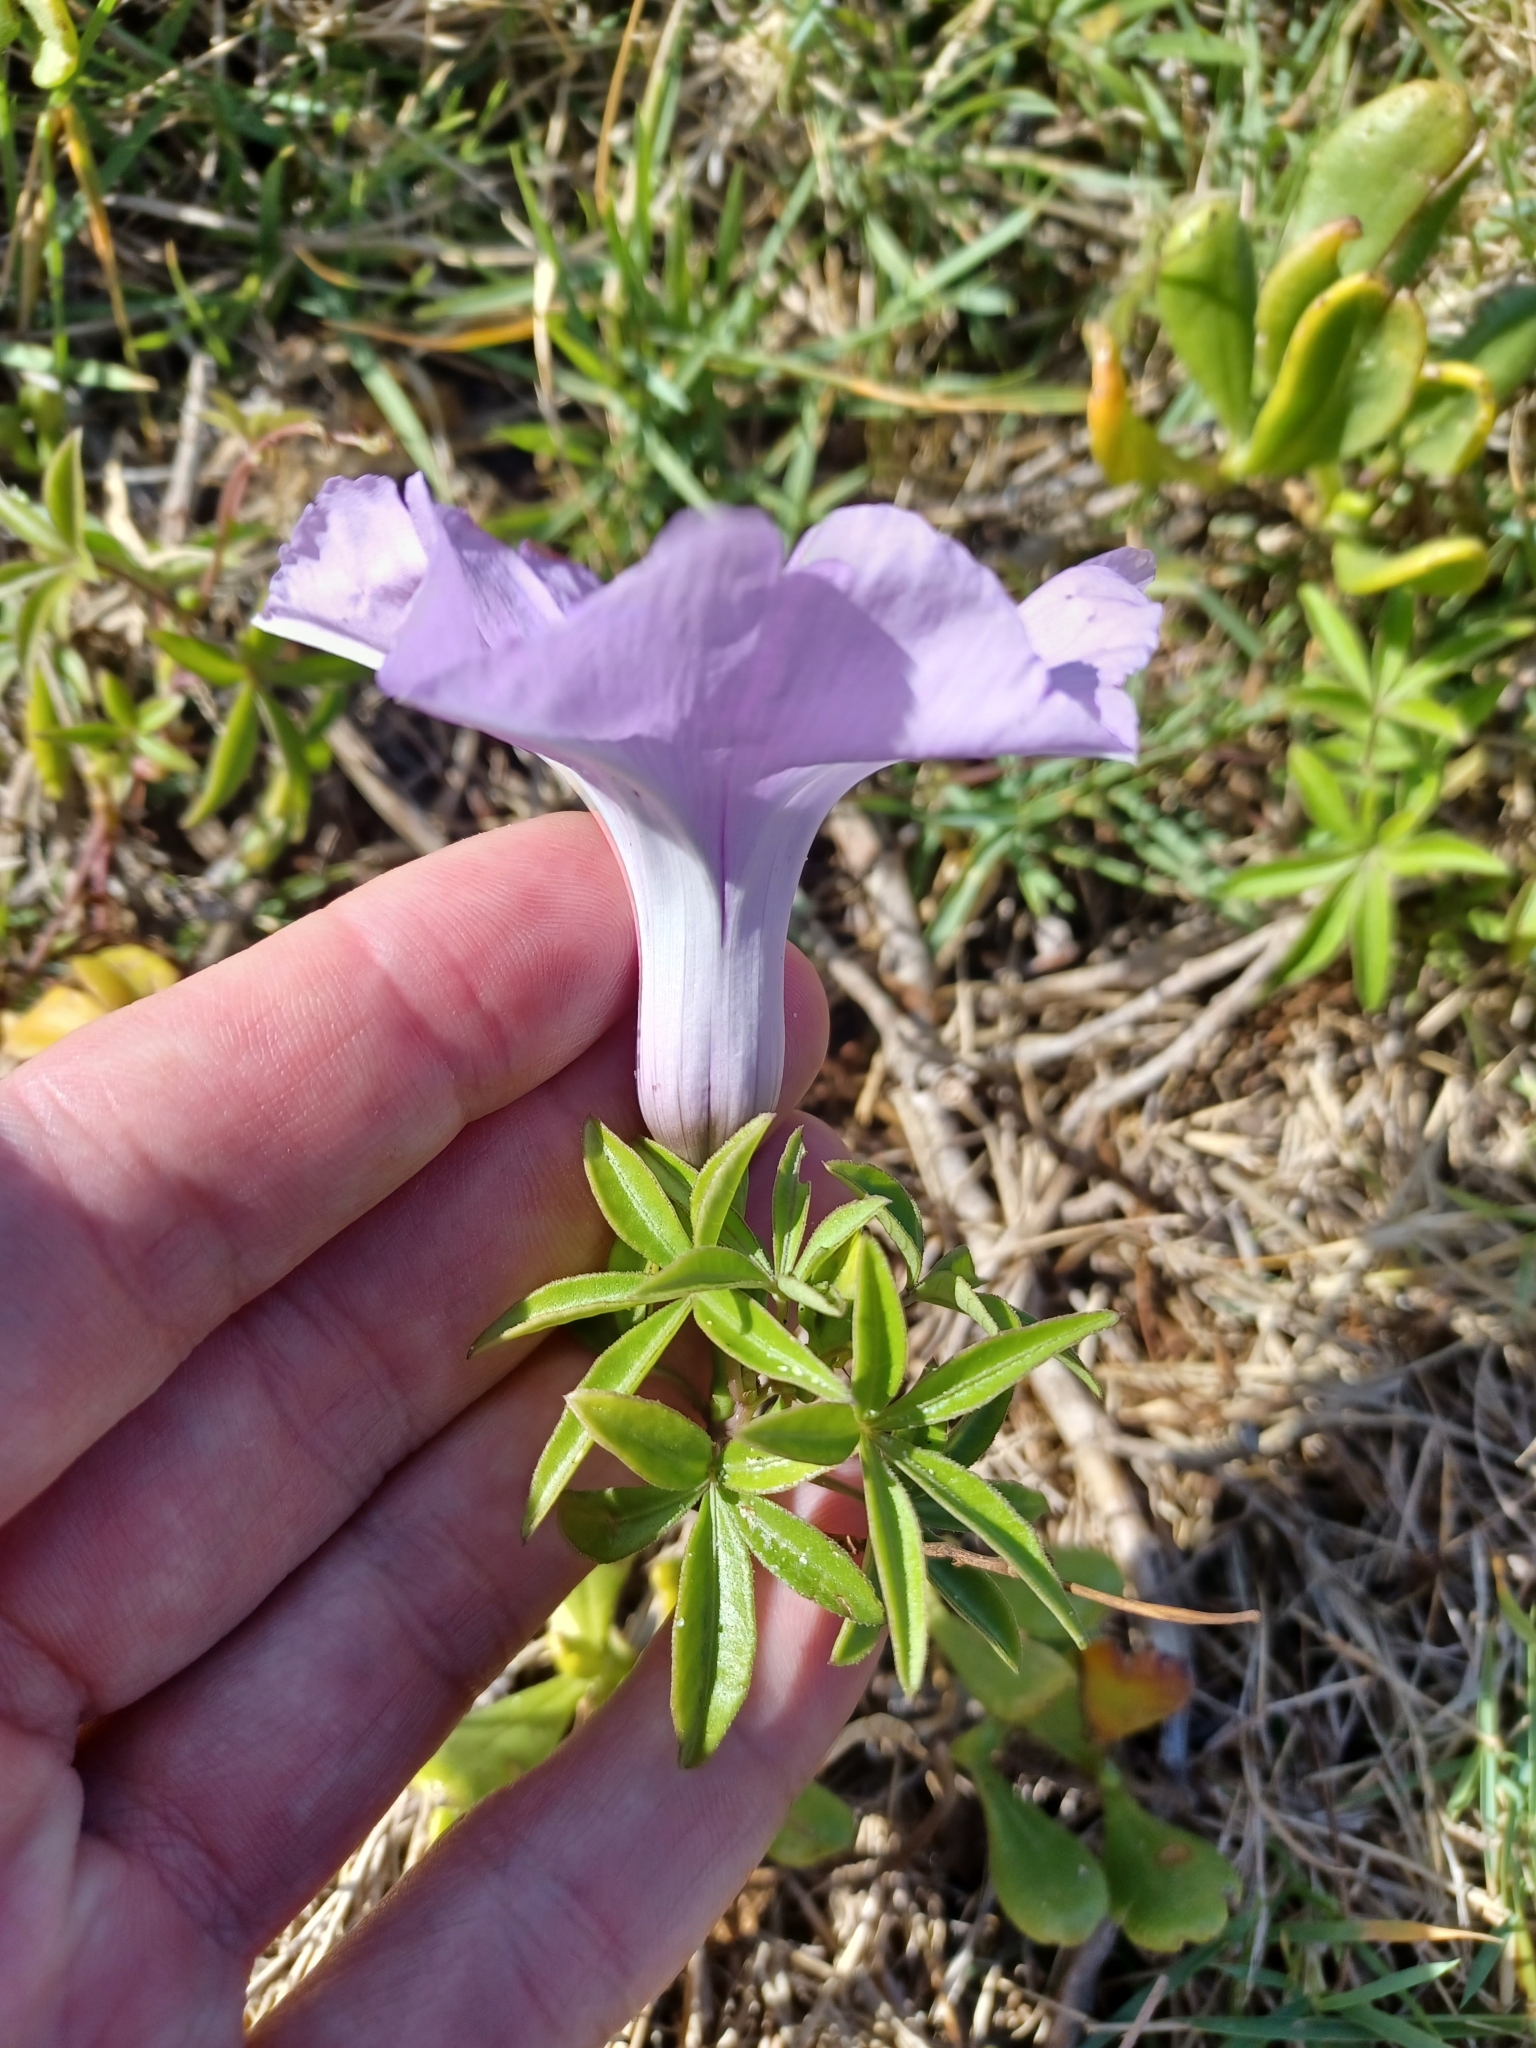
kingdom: Plantae
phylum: Tracheophyta
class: Magnoliopsida
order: Solanales
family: Convolvulaceae
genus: Ipomoea
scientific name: Ipomoea cairica
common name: Mile a minute vine
